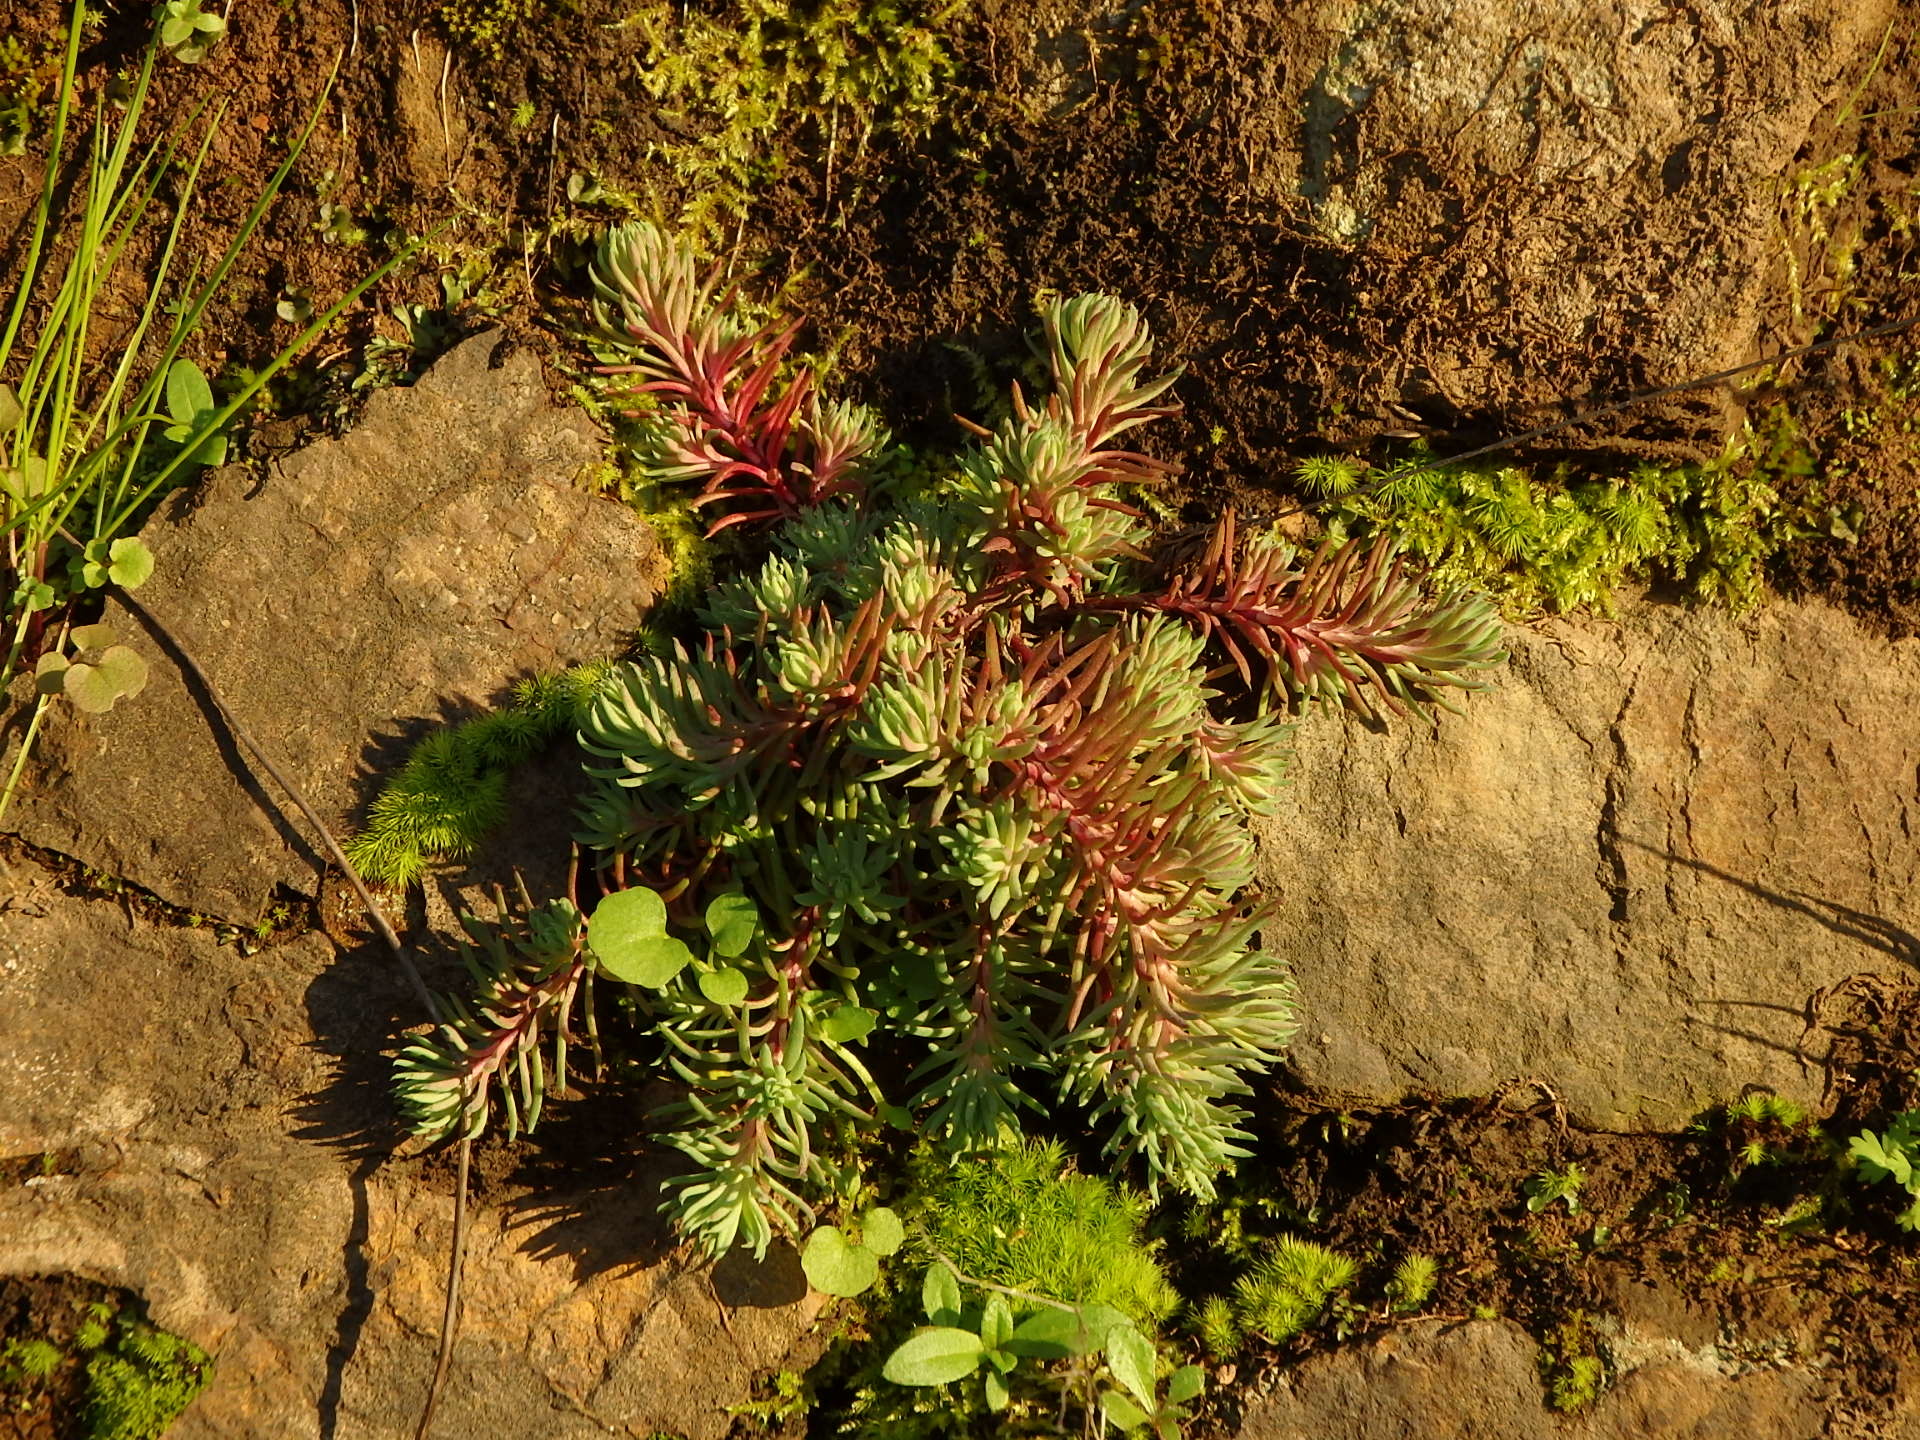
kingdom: Plantae
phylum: Tracheophyta
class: Magnoliopsida
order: Saxifragales
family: Crassulaceae
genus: Petrosedum
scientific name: Petrosedum forsterianum
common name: Forster's stonecrop
